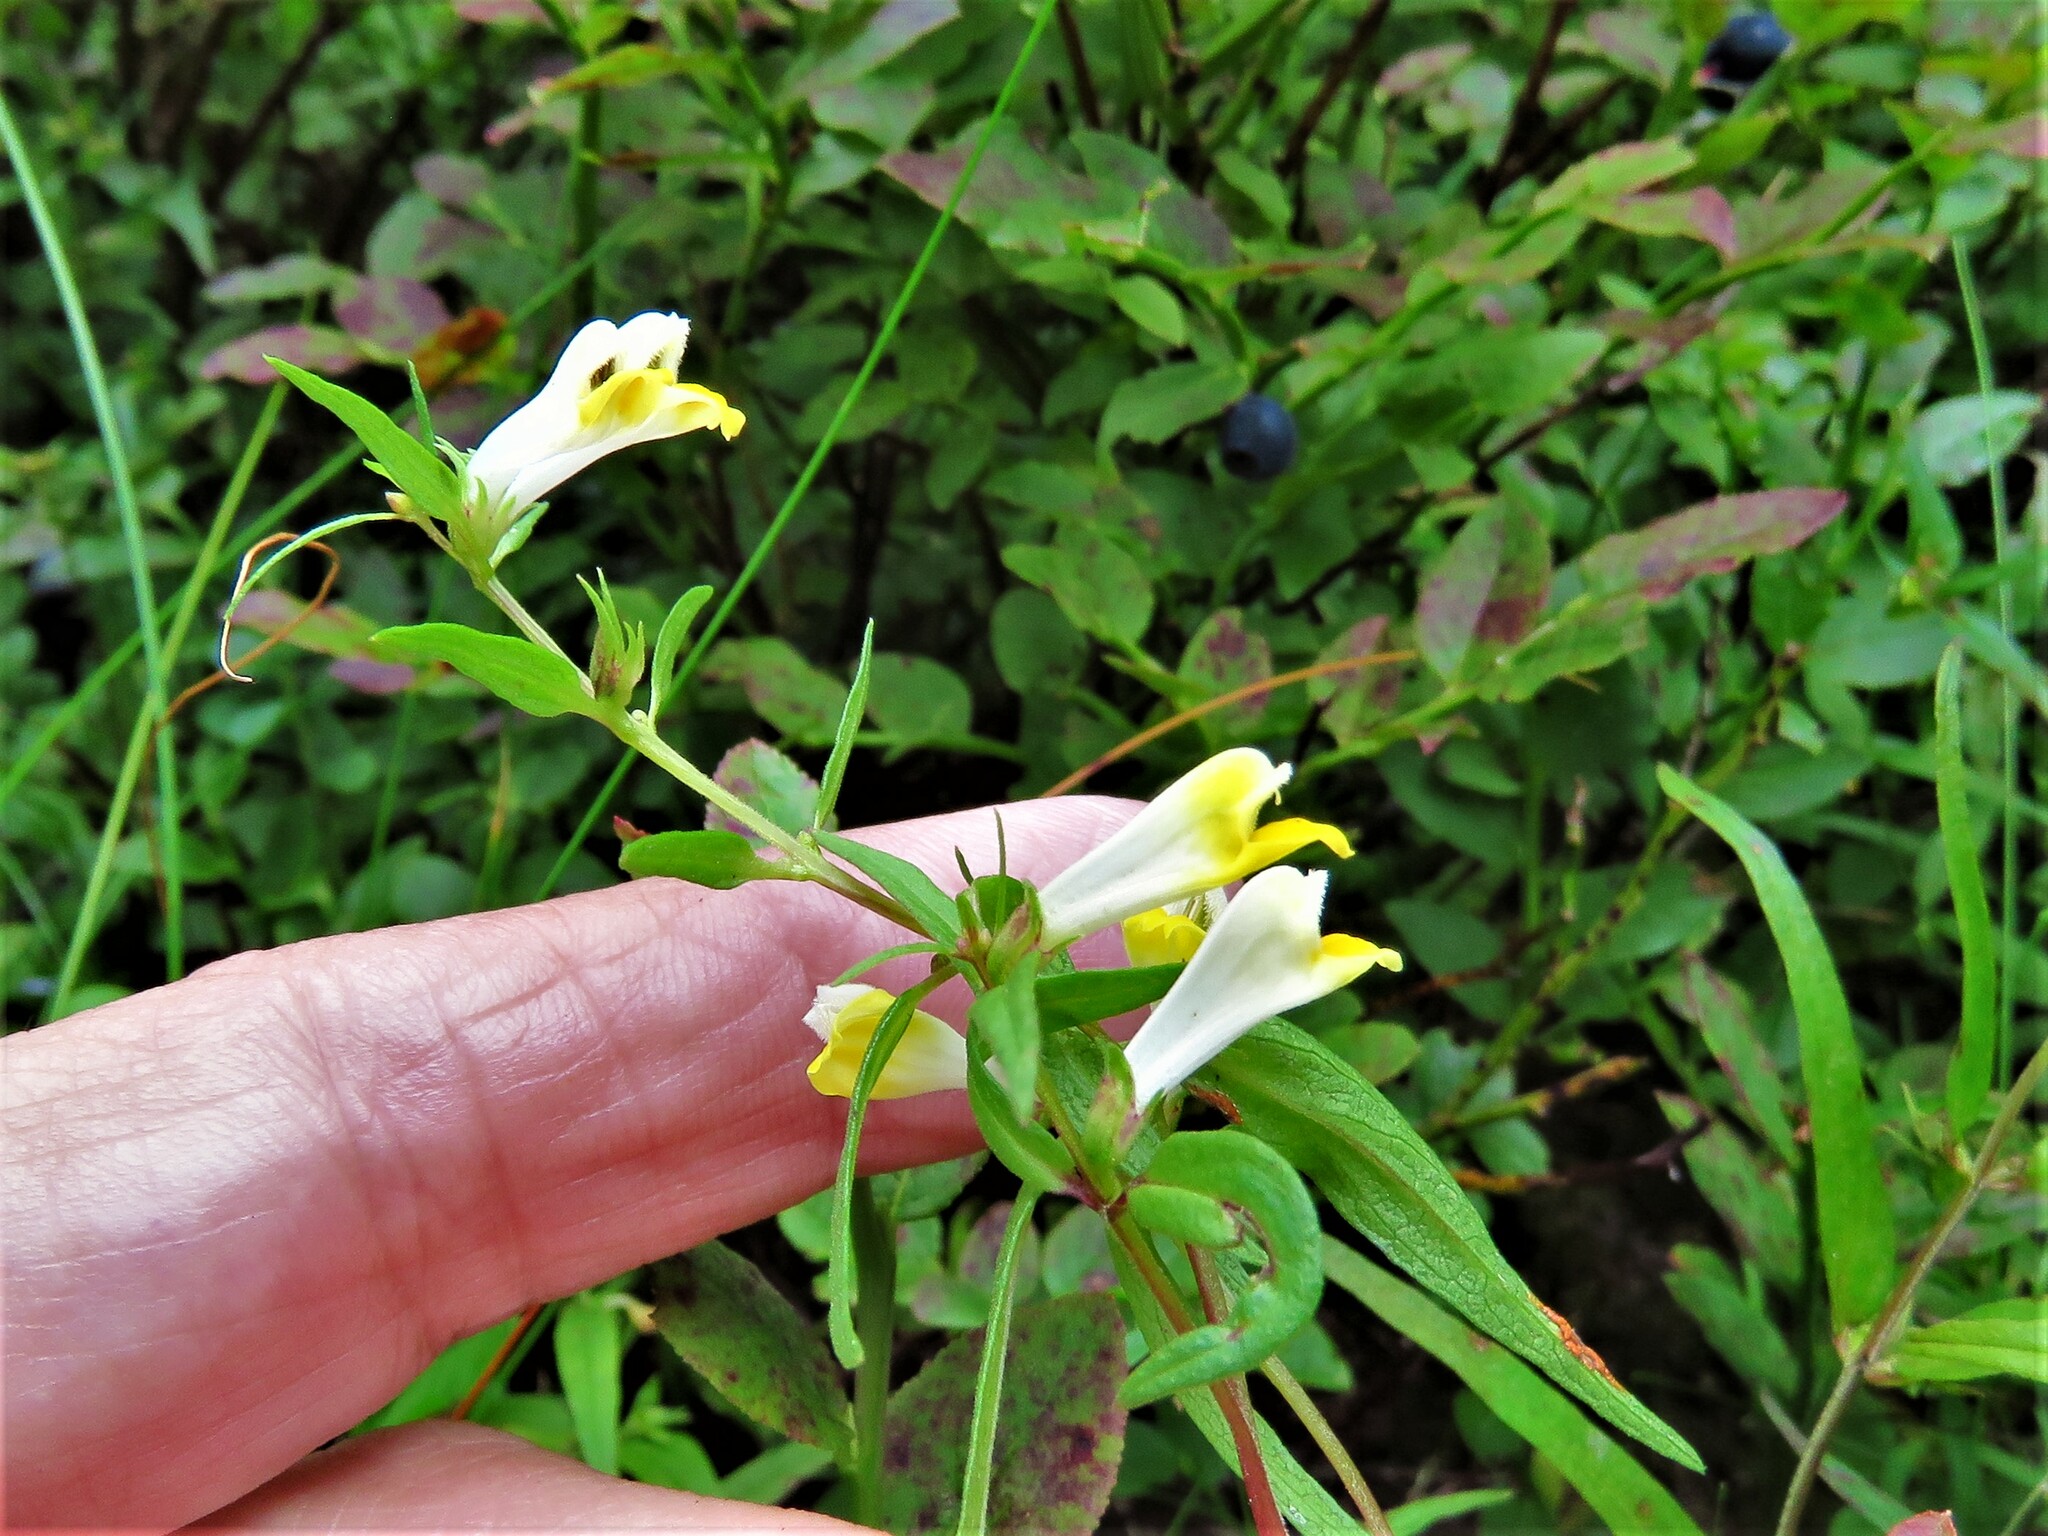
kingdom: Plantae
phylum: Tracheophyta
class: Magnoliopsida
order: Lamiales
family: Orobanchaceae
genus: Melampyrum
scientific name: Melampyrum pratense
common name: Common cow-wheat
